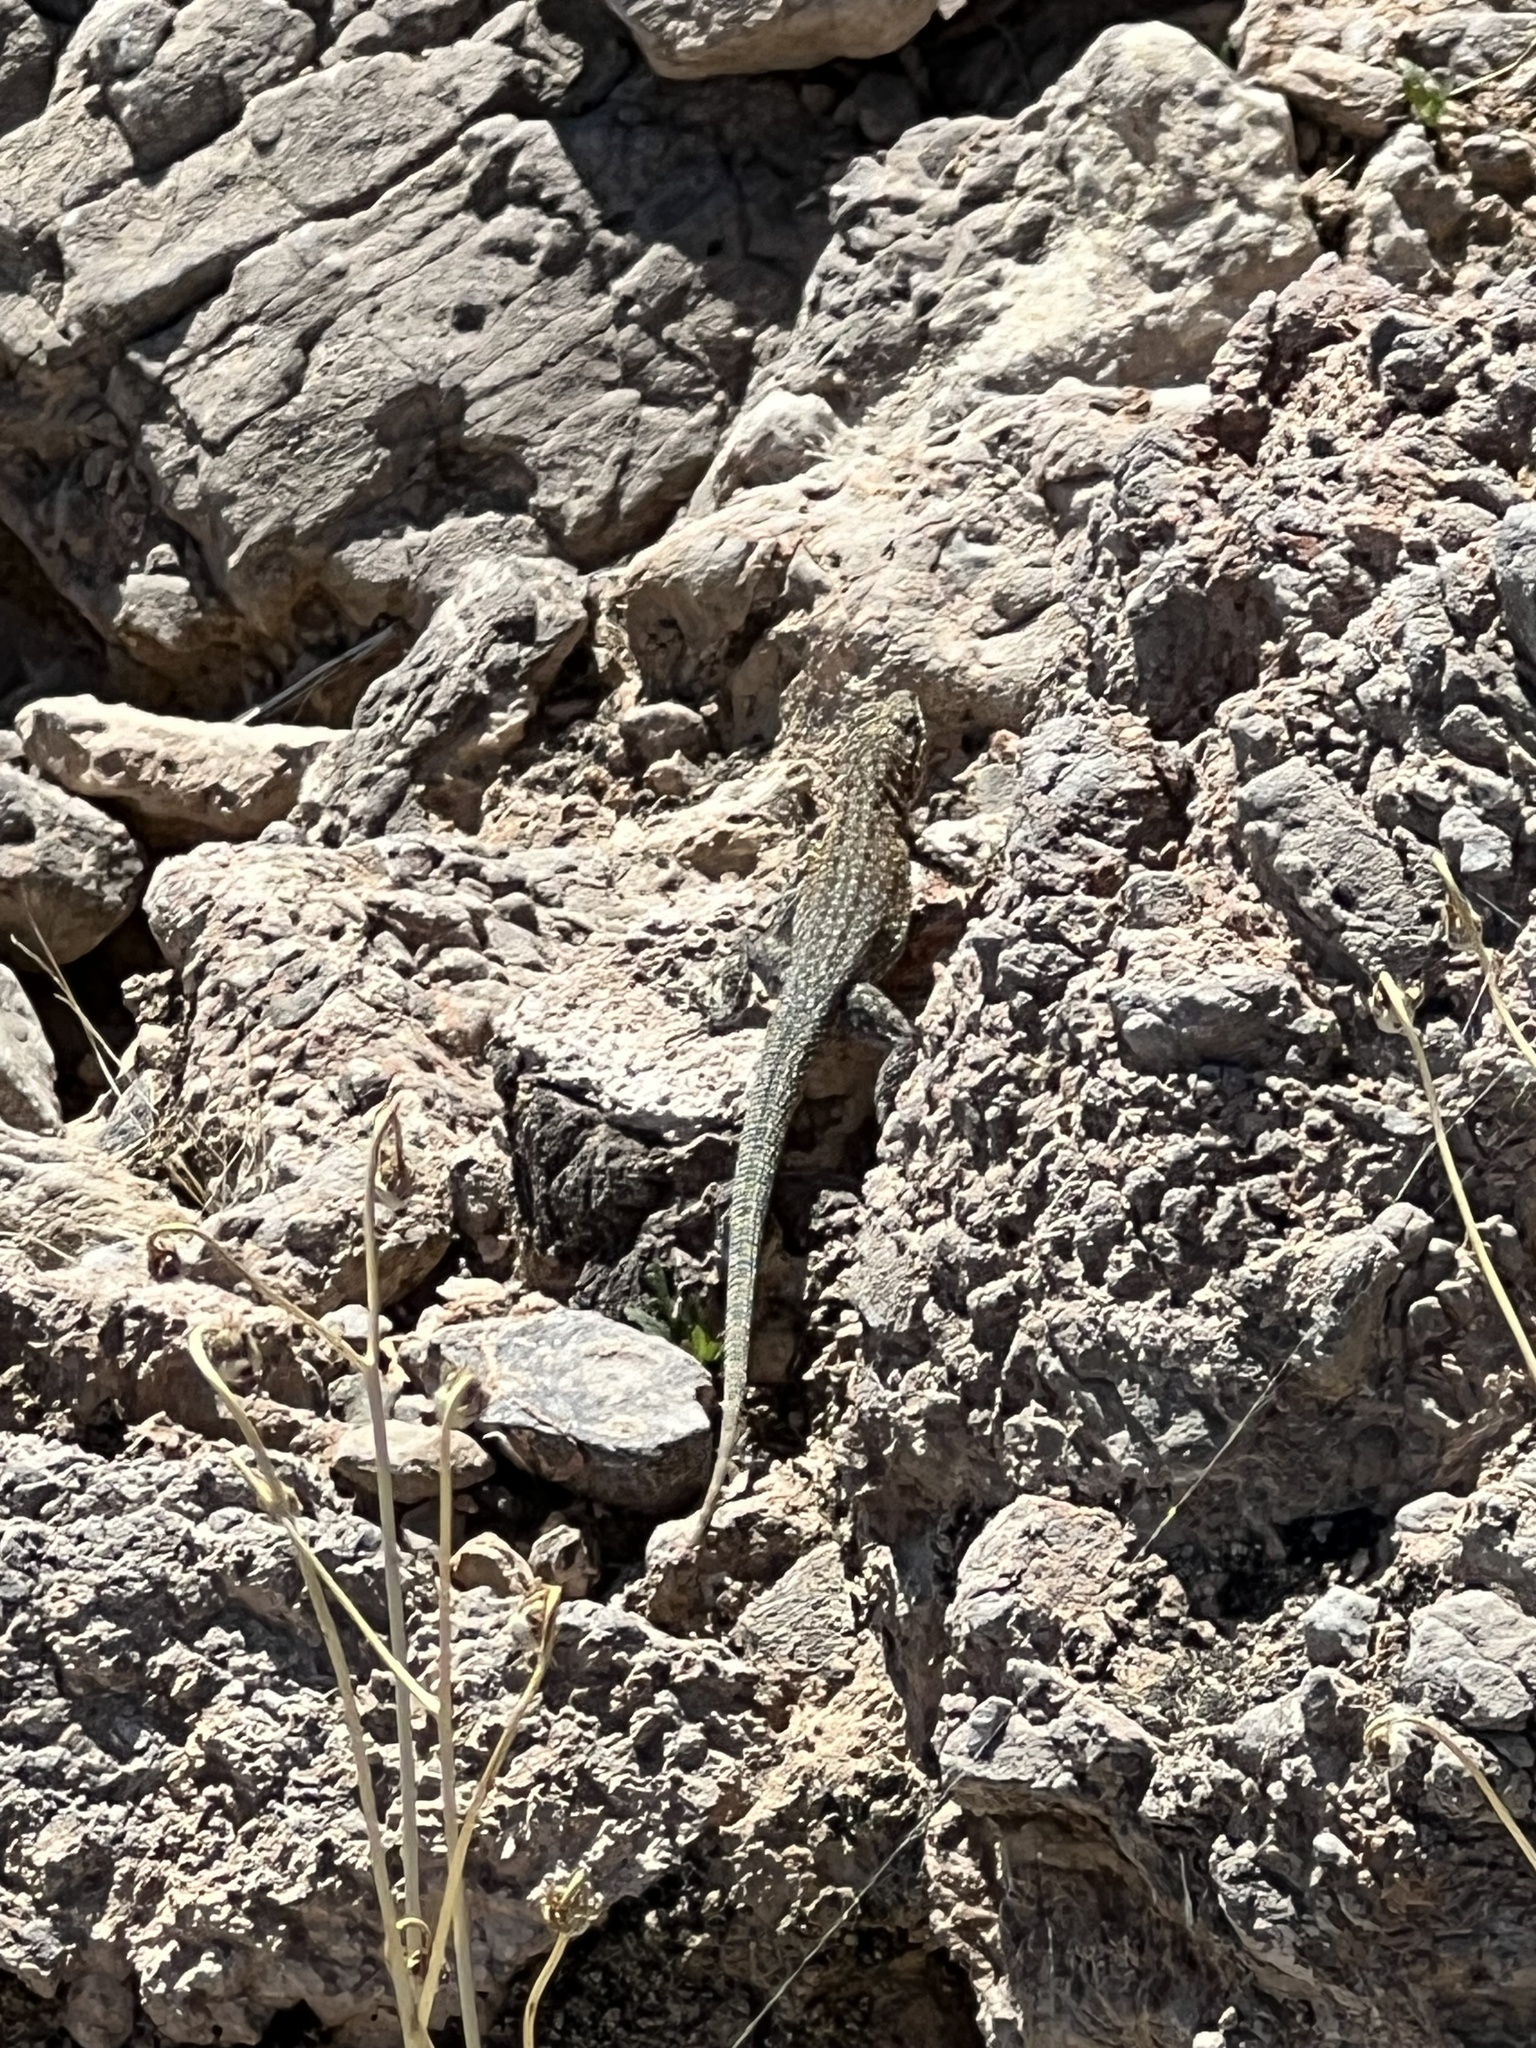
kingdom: Animalia
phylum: Chordata
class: Squamata
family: Phrynosomatidae
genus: Uta
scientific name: Uta stansburiana
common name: Side-blotched lizard
